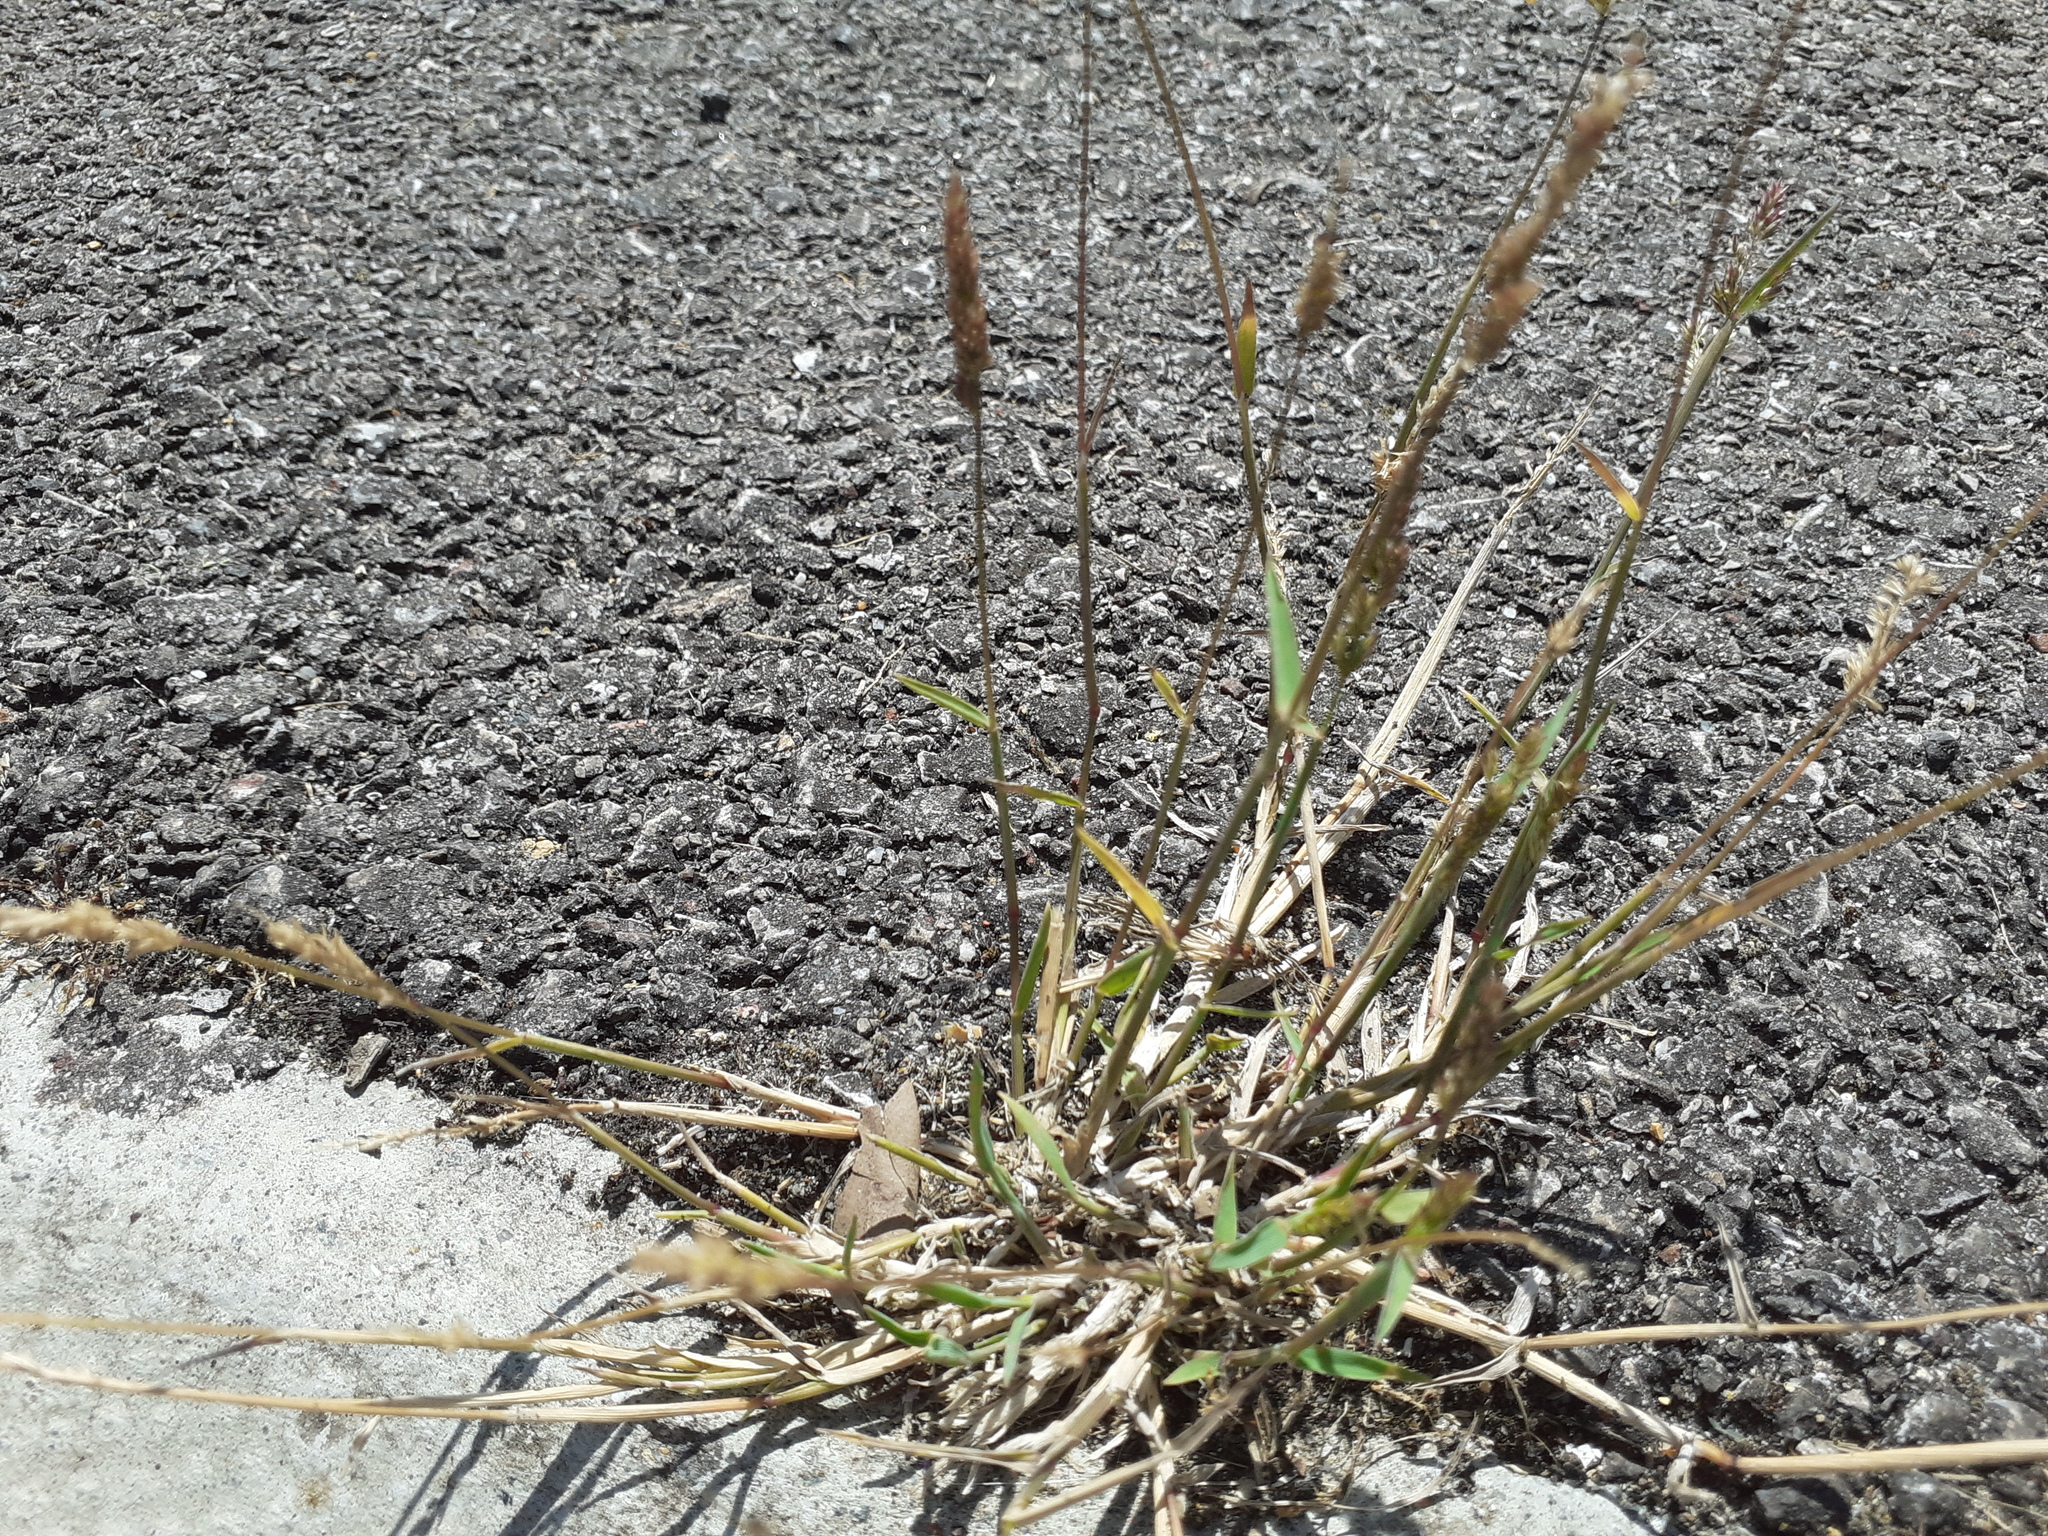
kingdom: Plantae
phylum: Tracheophyta
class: Liliopsida
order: Poales
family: Poaceae
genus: Polypogon
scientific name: Polypogon viridis
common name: Water bent
